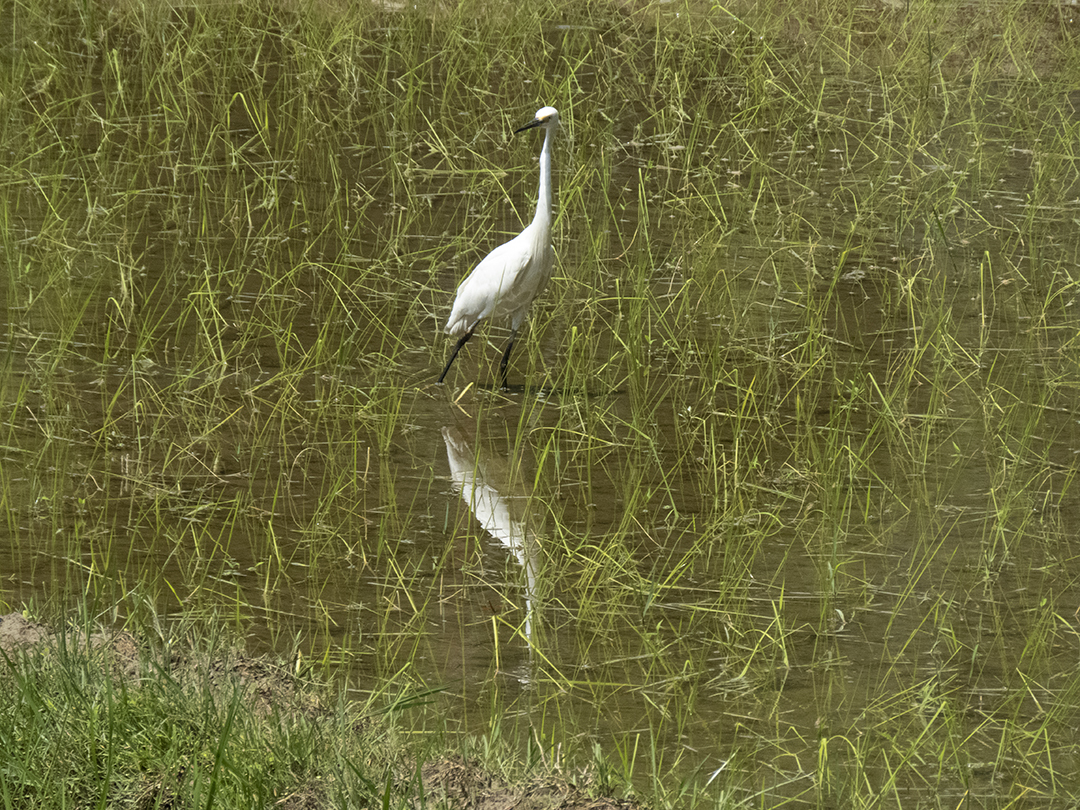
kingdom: Animalia
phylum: Chordata
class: Aves
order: Pelecaniformes
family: Ardeidae
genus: Egretta
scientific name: Egretta garzetta
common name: Little egret
